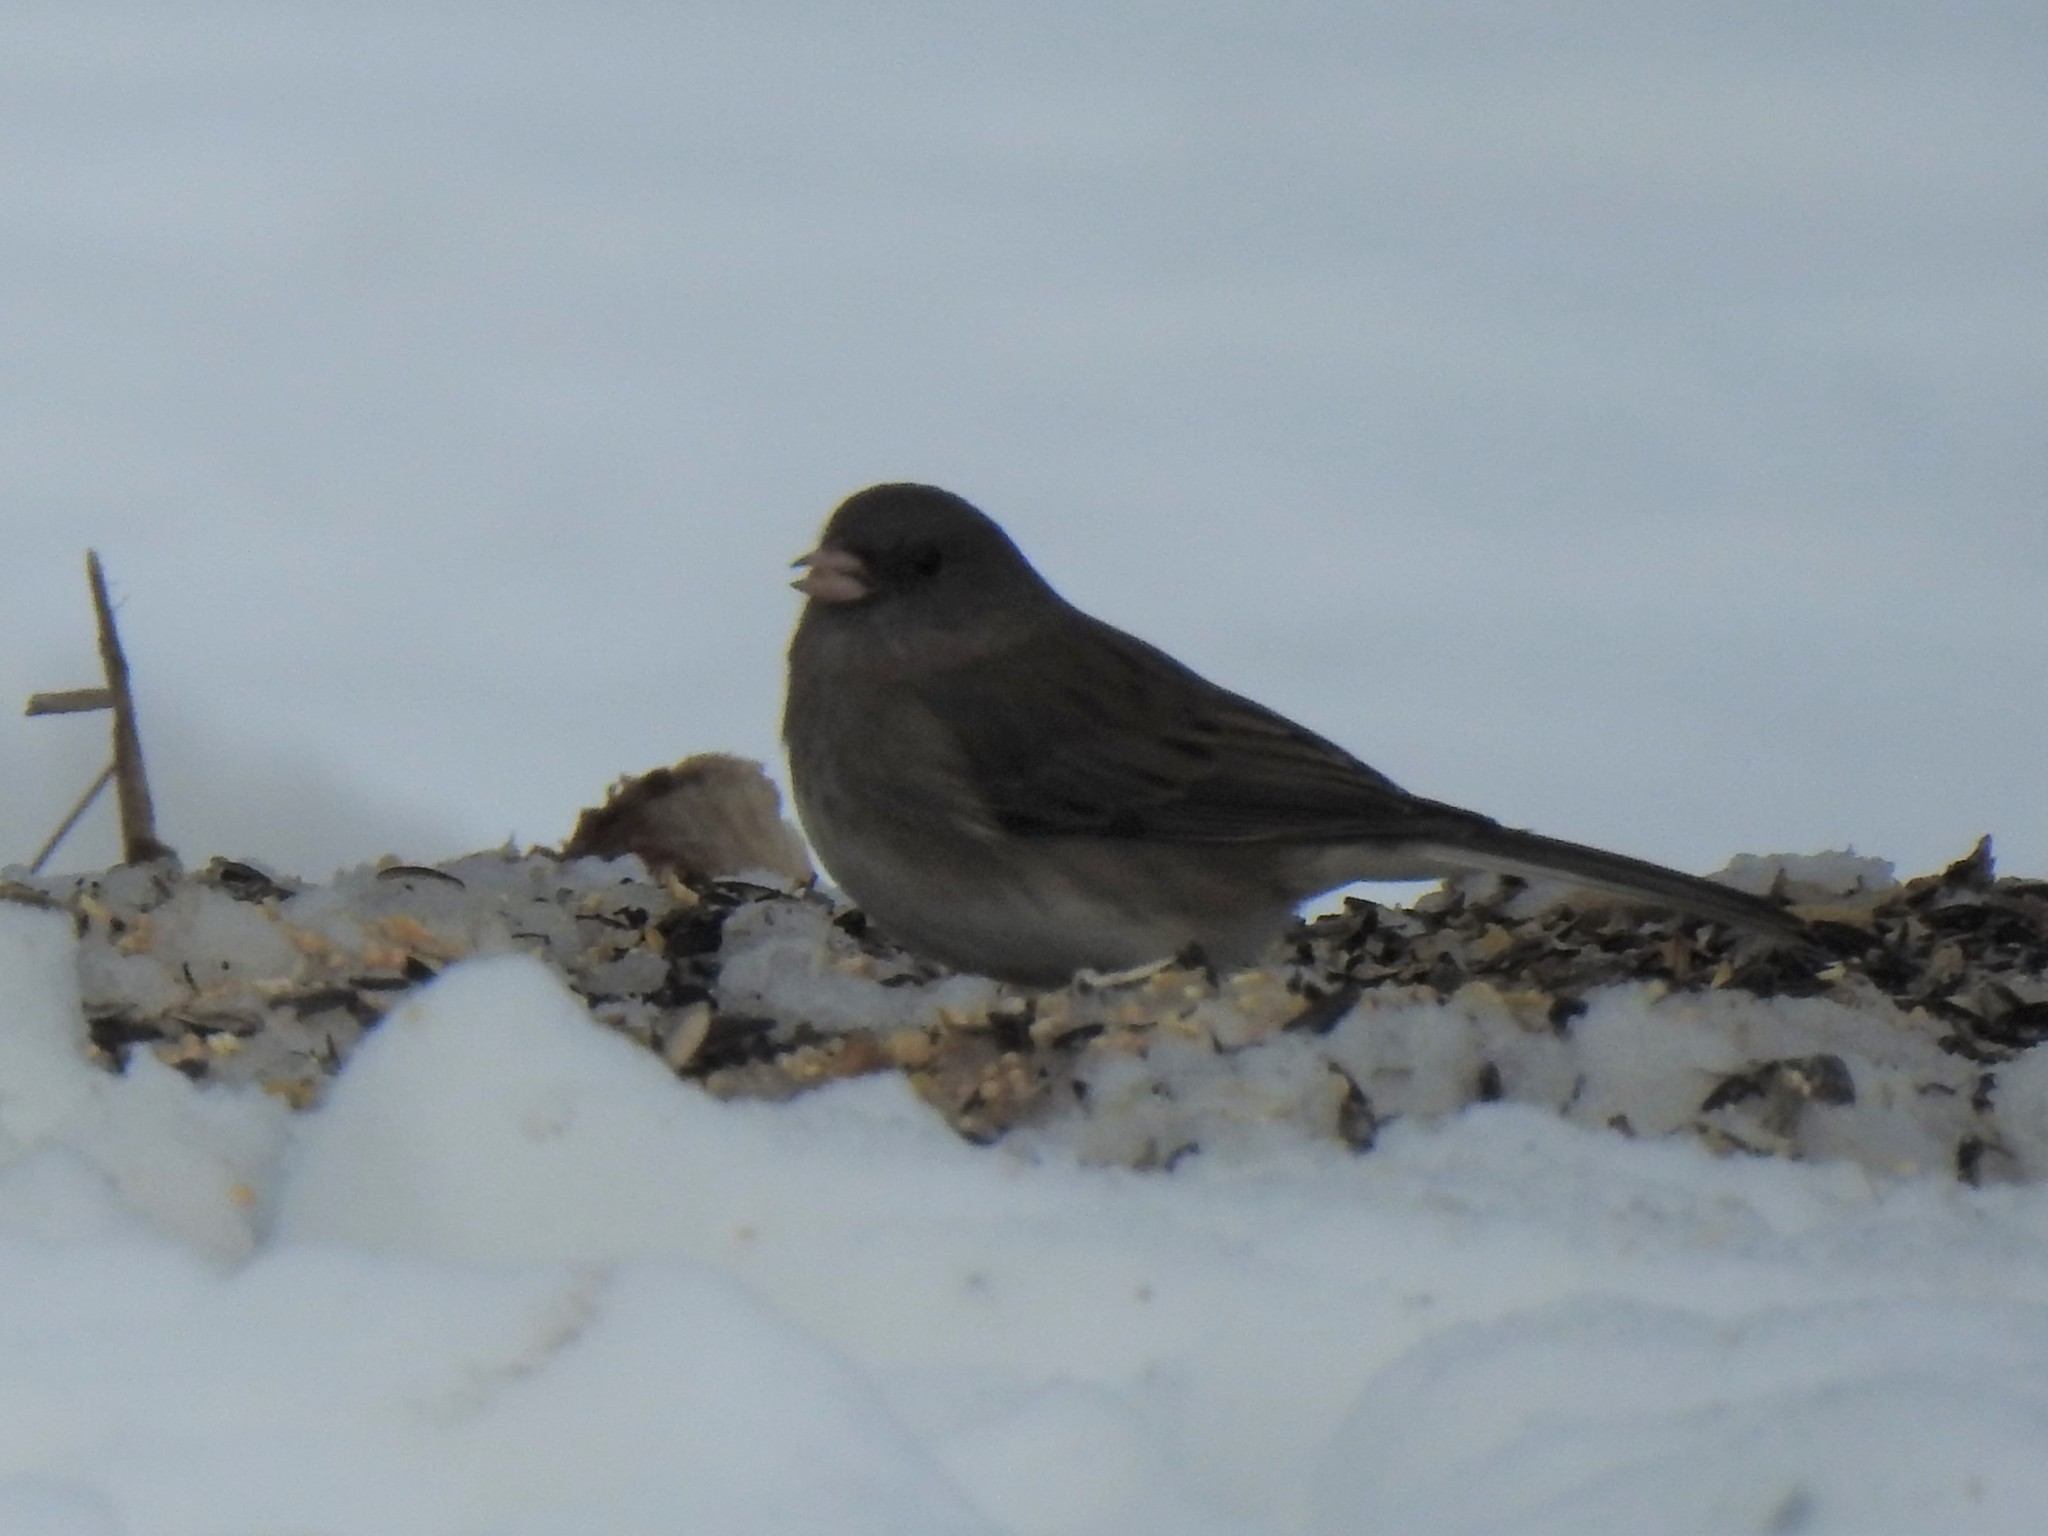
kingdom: Animalia
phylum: Chordata
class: Aves
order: Passeriformes
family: Passerellidae
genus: Junco
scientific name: Junco hyemalis
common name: Dark-eyed junco
